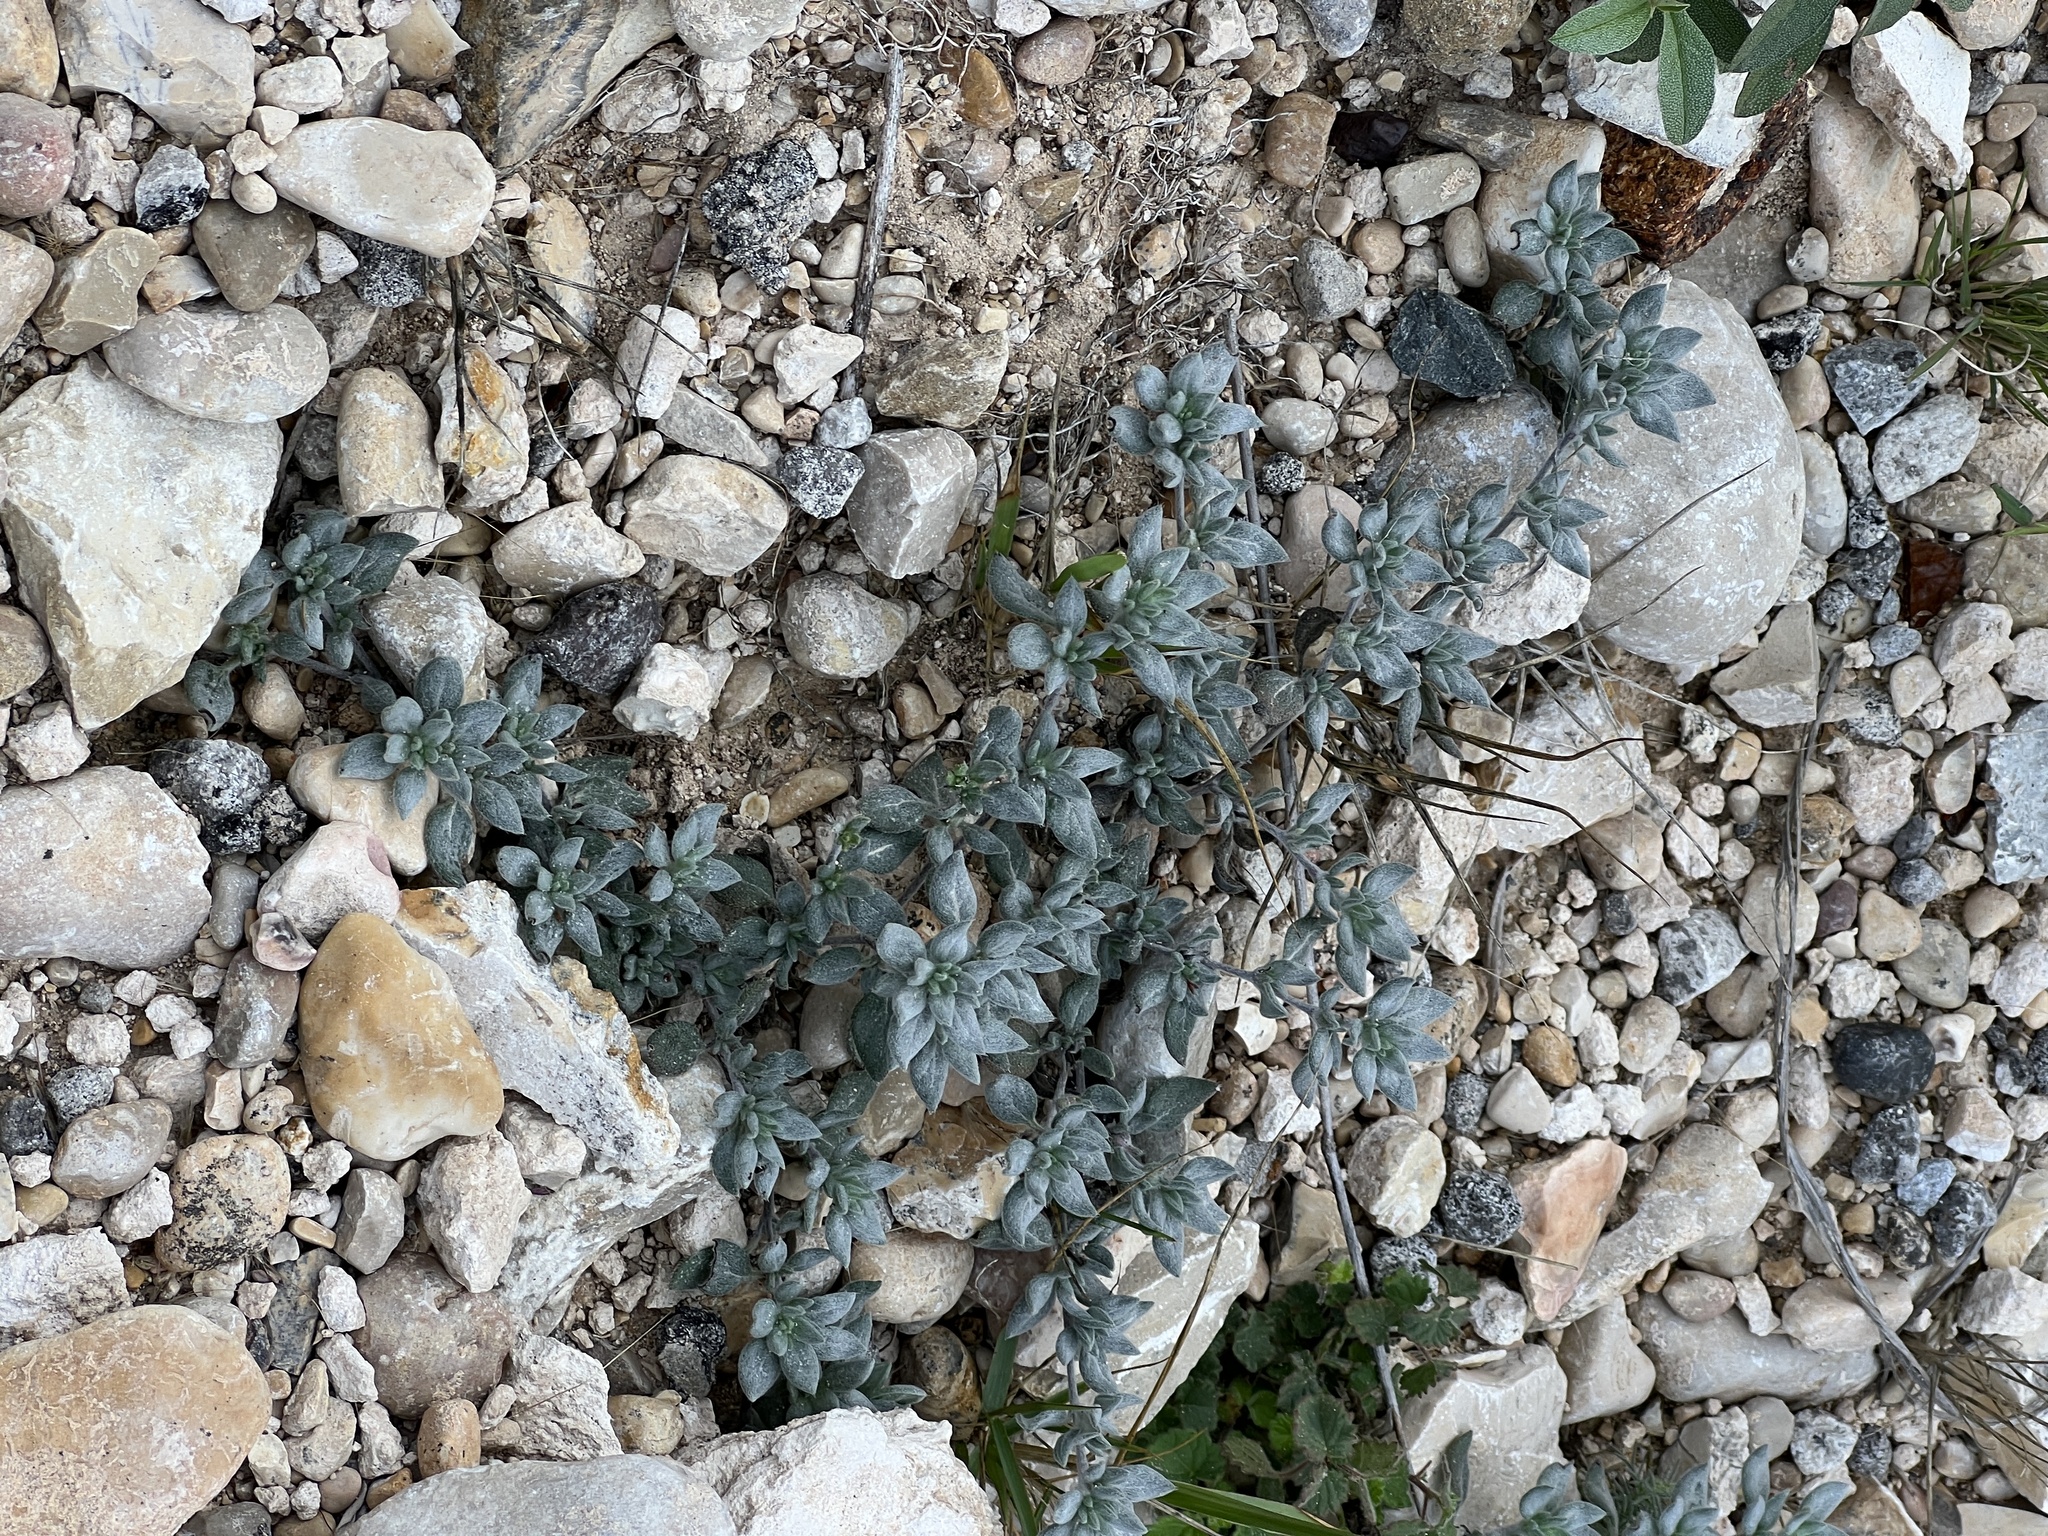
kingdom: Plantae
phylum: Tracheophyta
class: Magnoliopsida
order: Boraginales
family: Ehretiaceae
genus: Tiquilia
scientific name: Tiquilia canescens
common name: Hairy tiquilia
